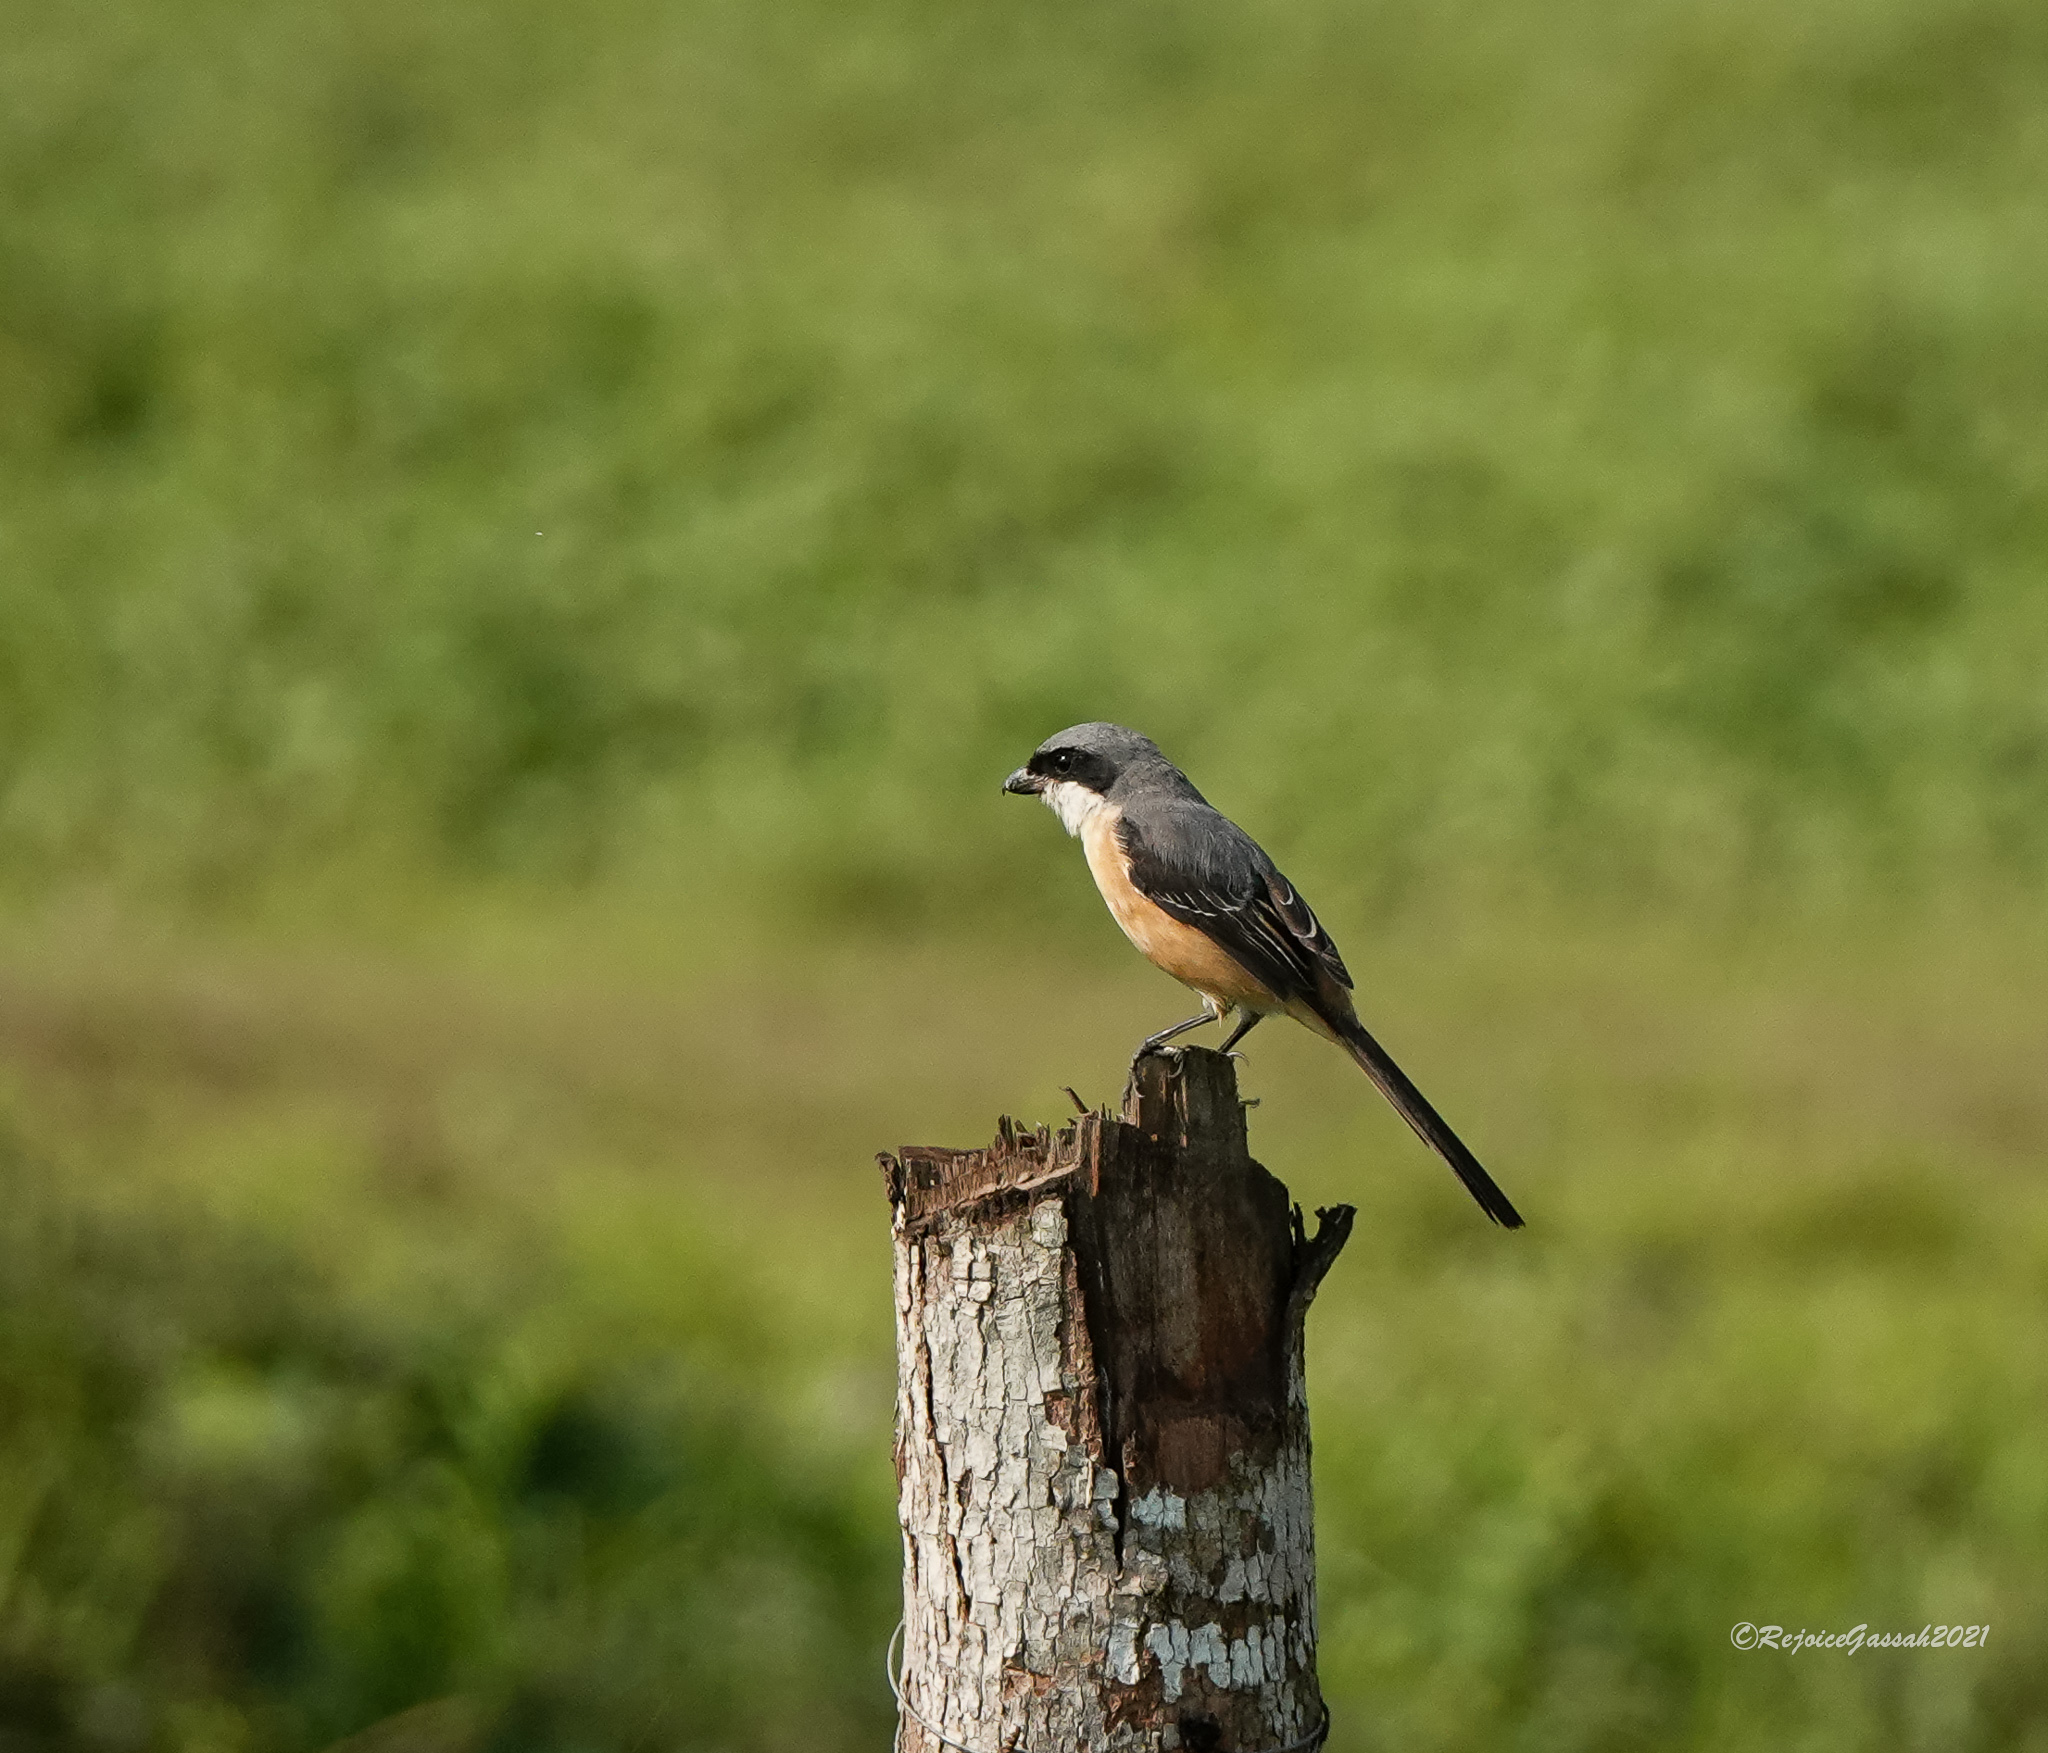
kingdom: Animalia
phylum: Chordata
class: Aves
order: Passeriformes
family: Laniidae
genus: Lanius
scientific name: Lanius tephronotus
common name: Grey-backed shrike
